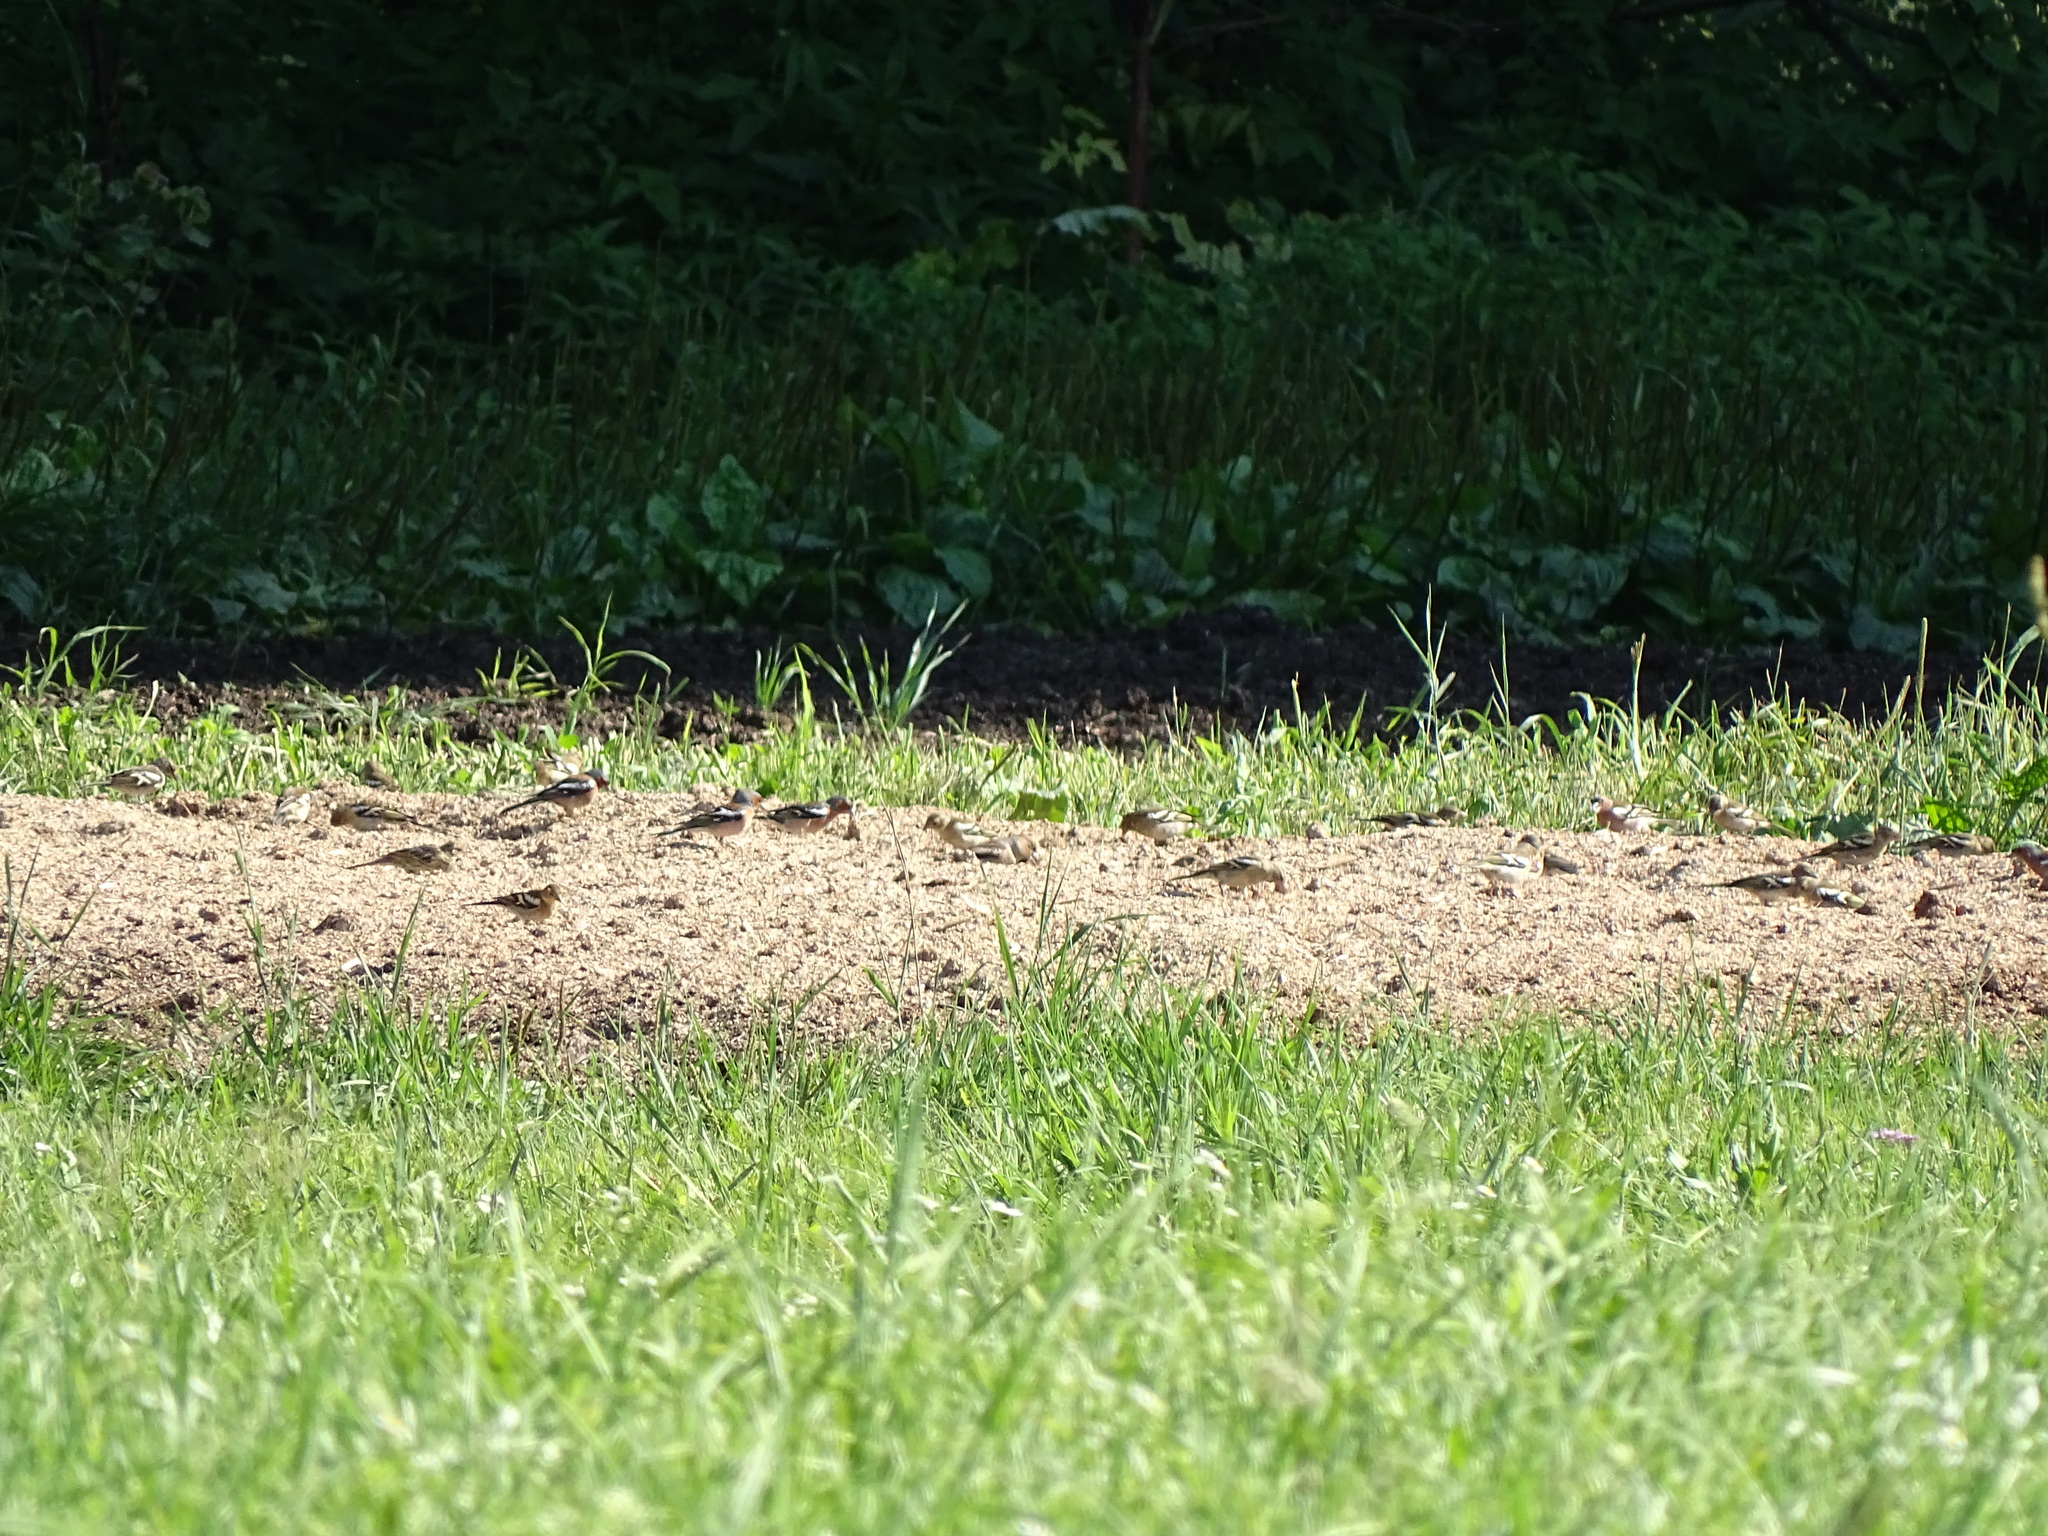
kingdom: Animalia
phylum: Chordata
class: Aves
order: Passeriformes
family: Fringillidae
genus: Fringilla
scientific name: Fringilla coelebs
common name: Common chaffinch
